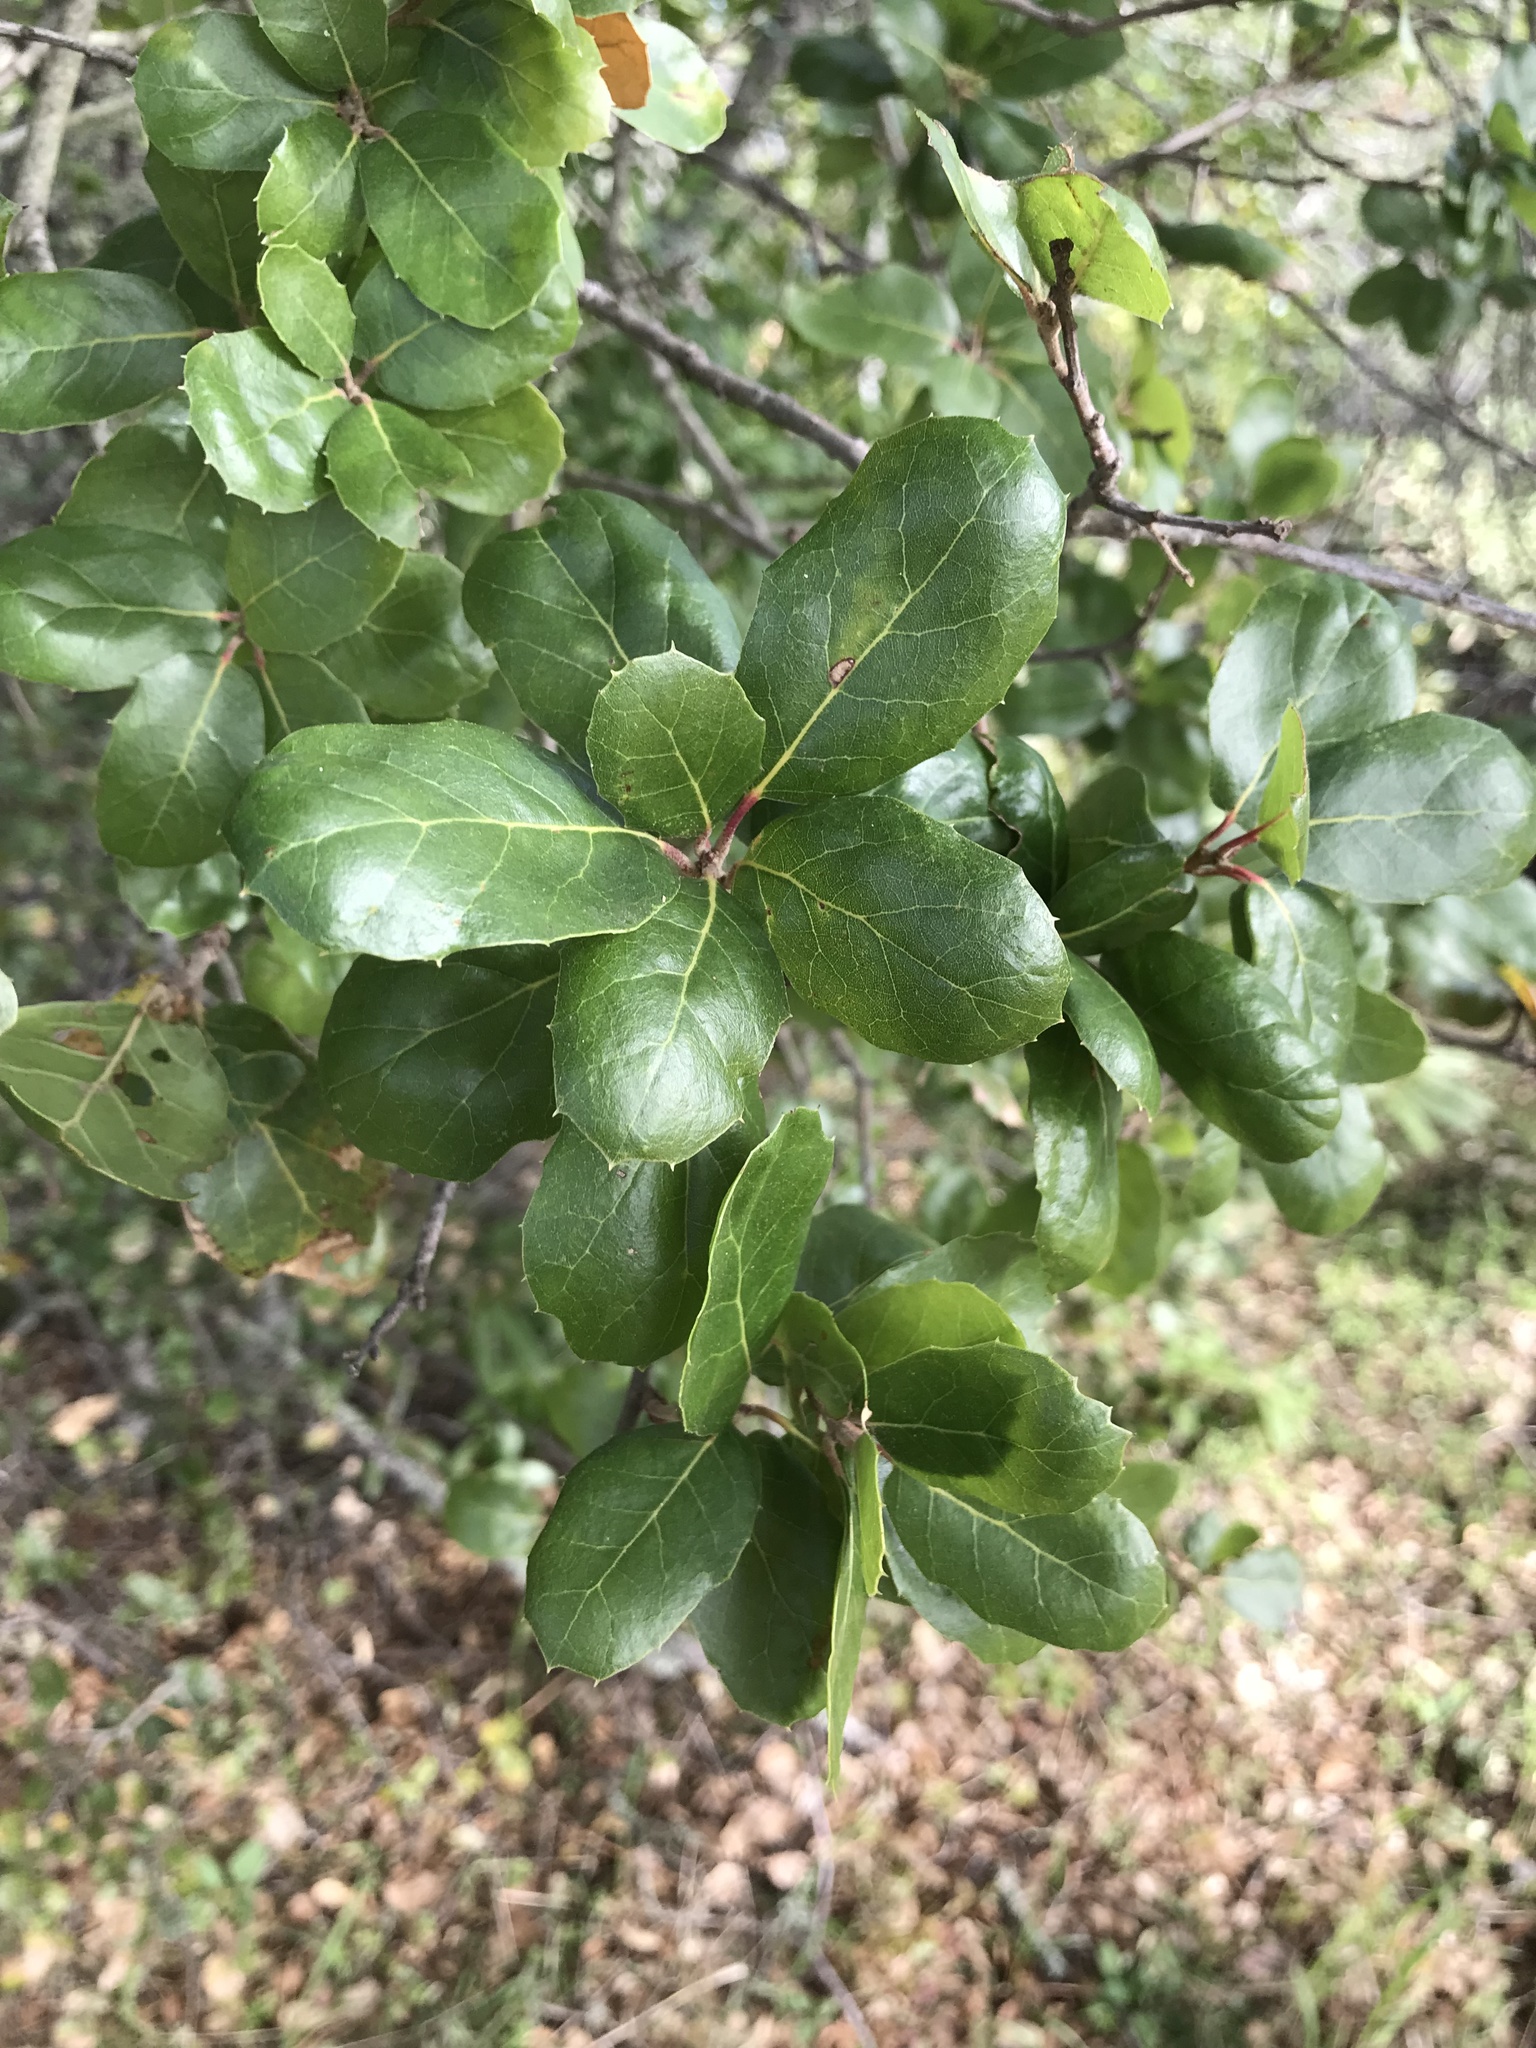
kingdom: Plantae
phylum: Tracheophyta
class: Magnoliopsida
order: Fagales
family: Fagaceae
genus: Quercus
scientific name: Quercus agrifolia
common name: California live oak
